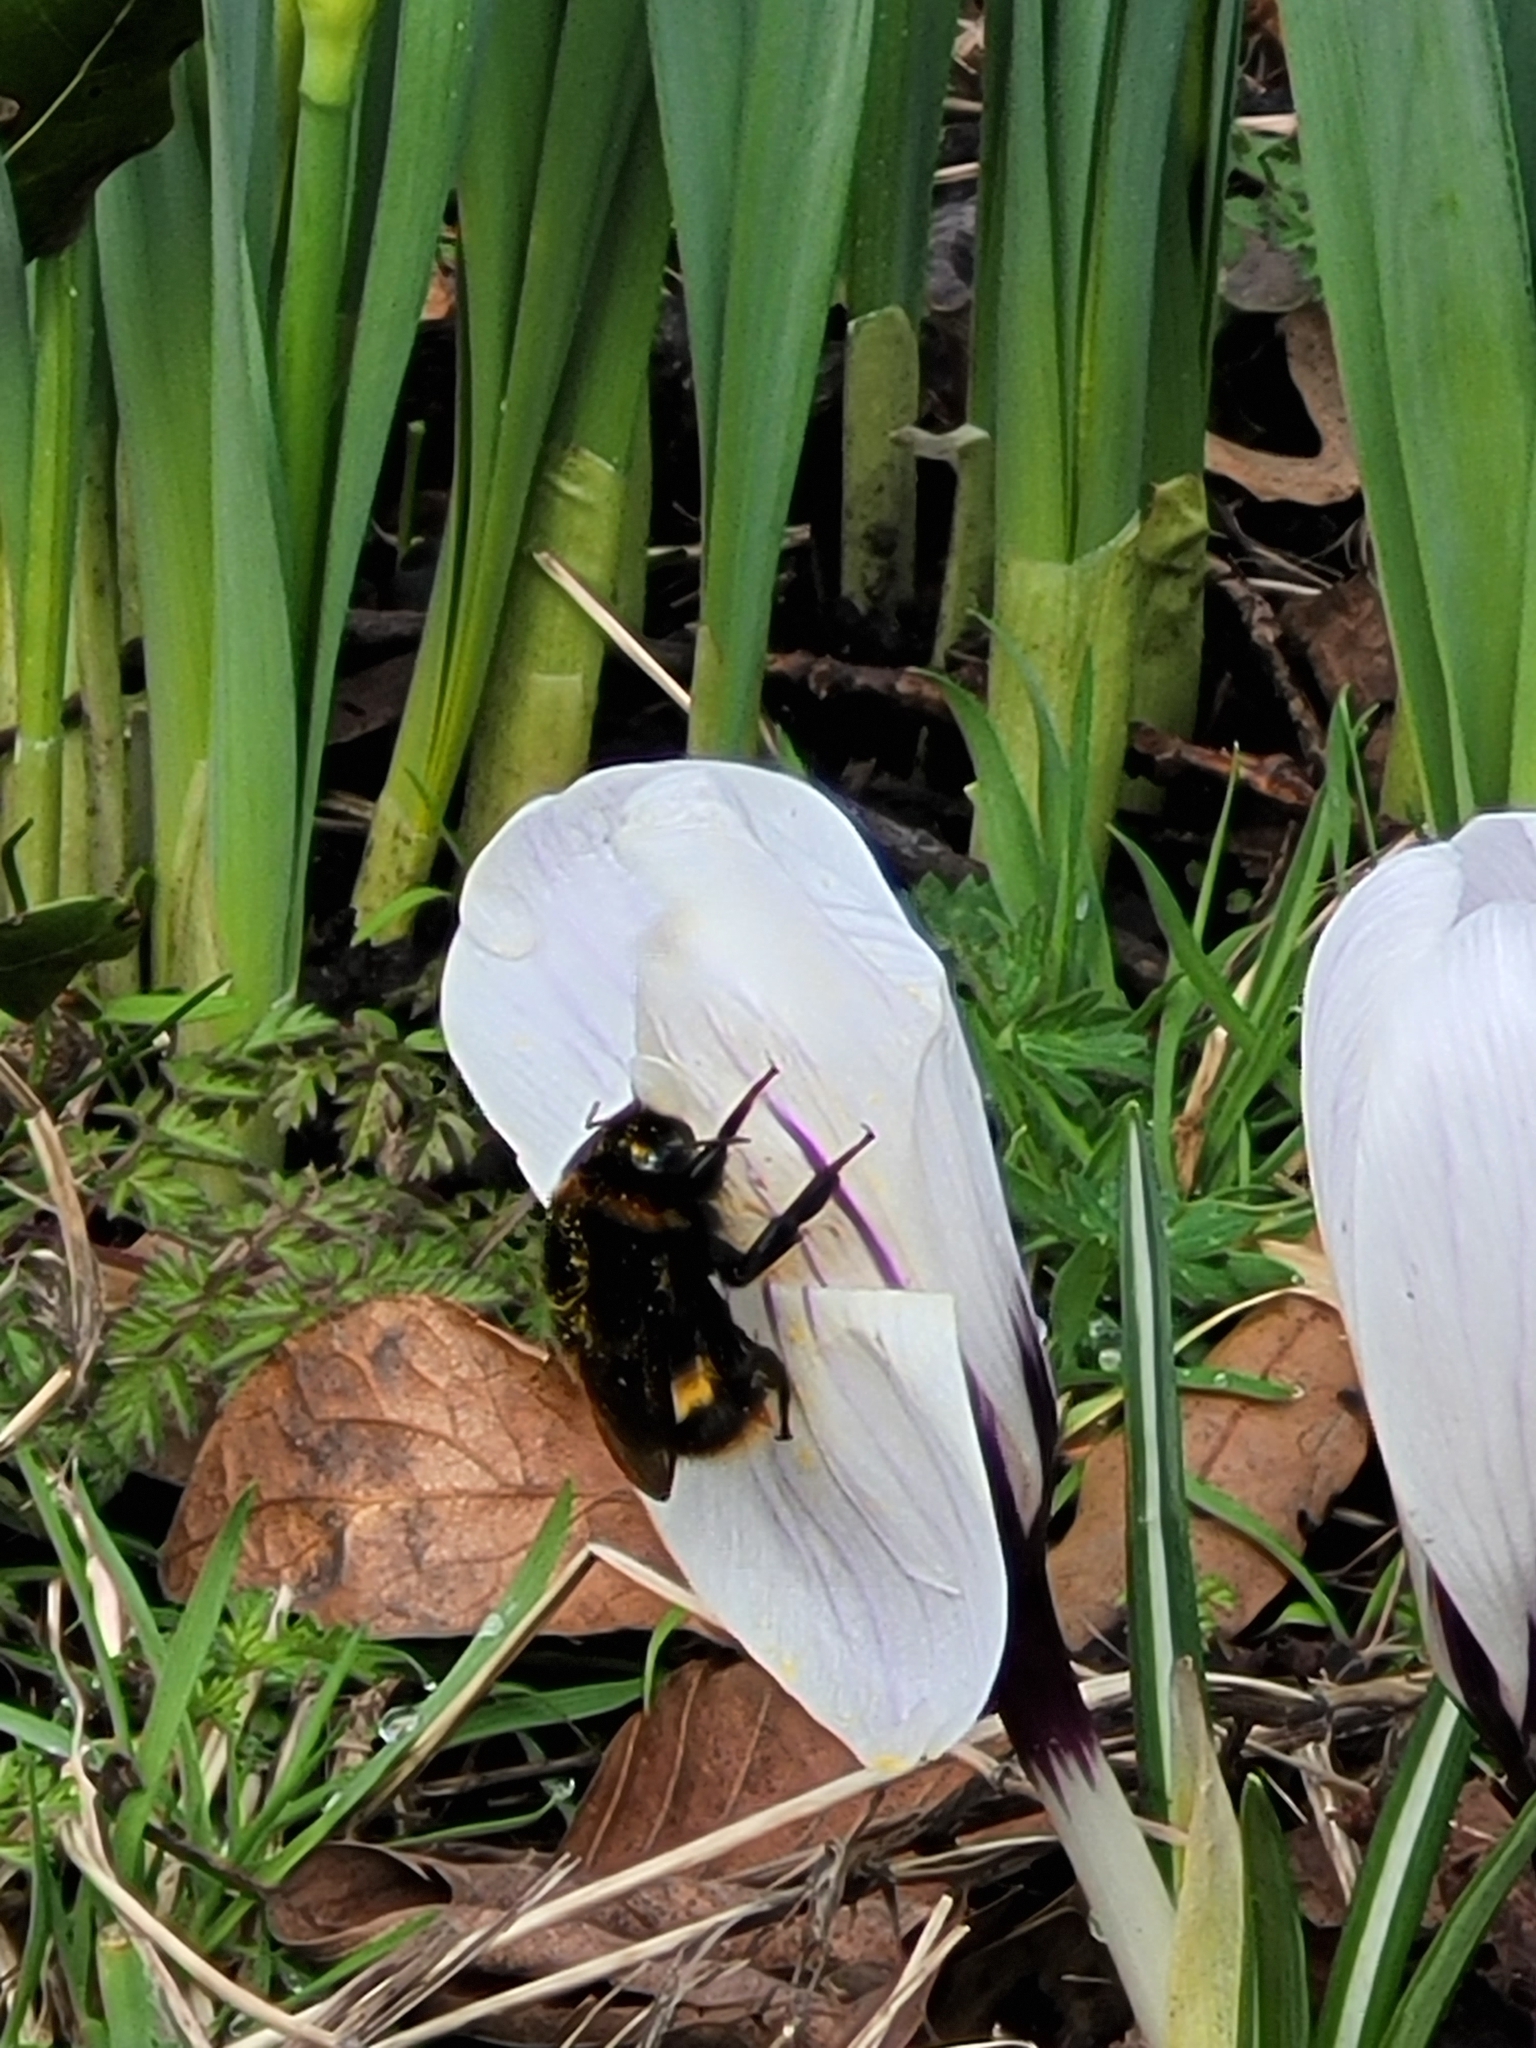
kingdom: Animalia
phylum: Arthropoda
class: Insecta
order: Hymenoptera
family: Apidae
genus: Bombus
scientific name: Bombus terrestris
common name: Buff-tailed bumblebee
